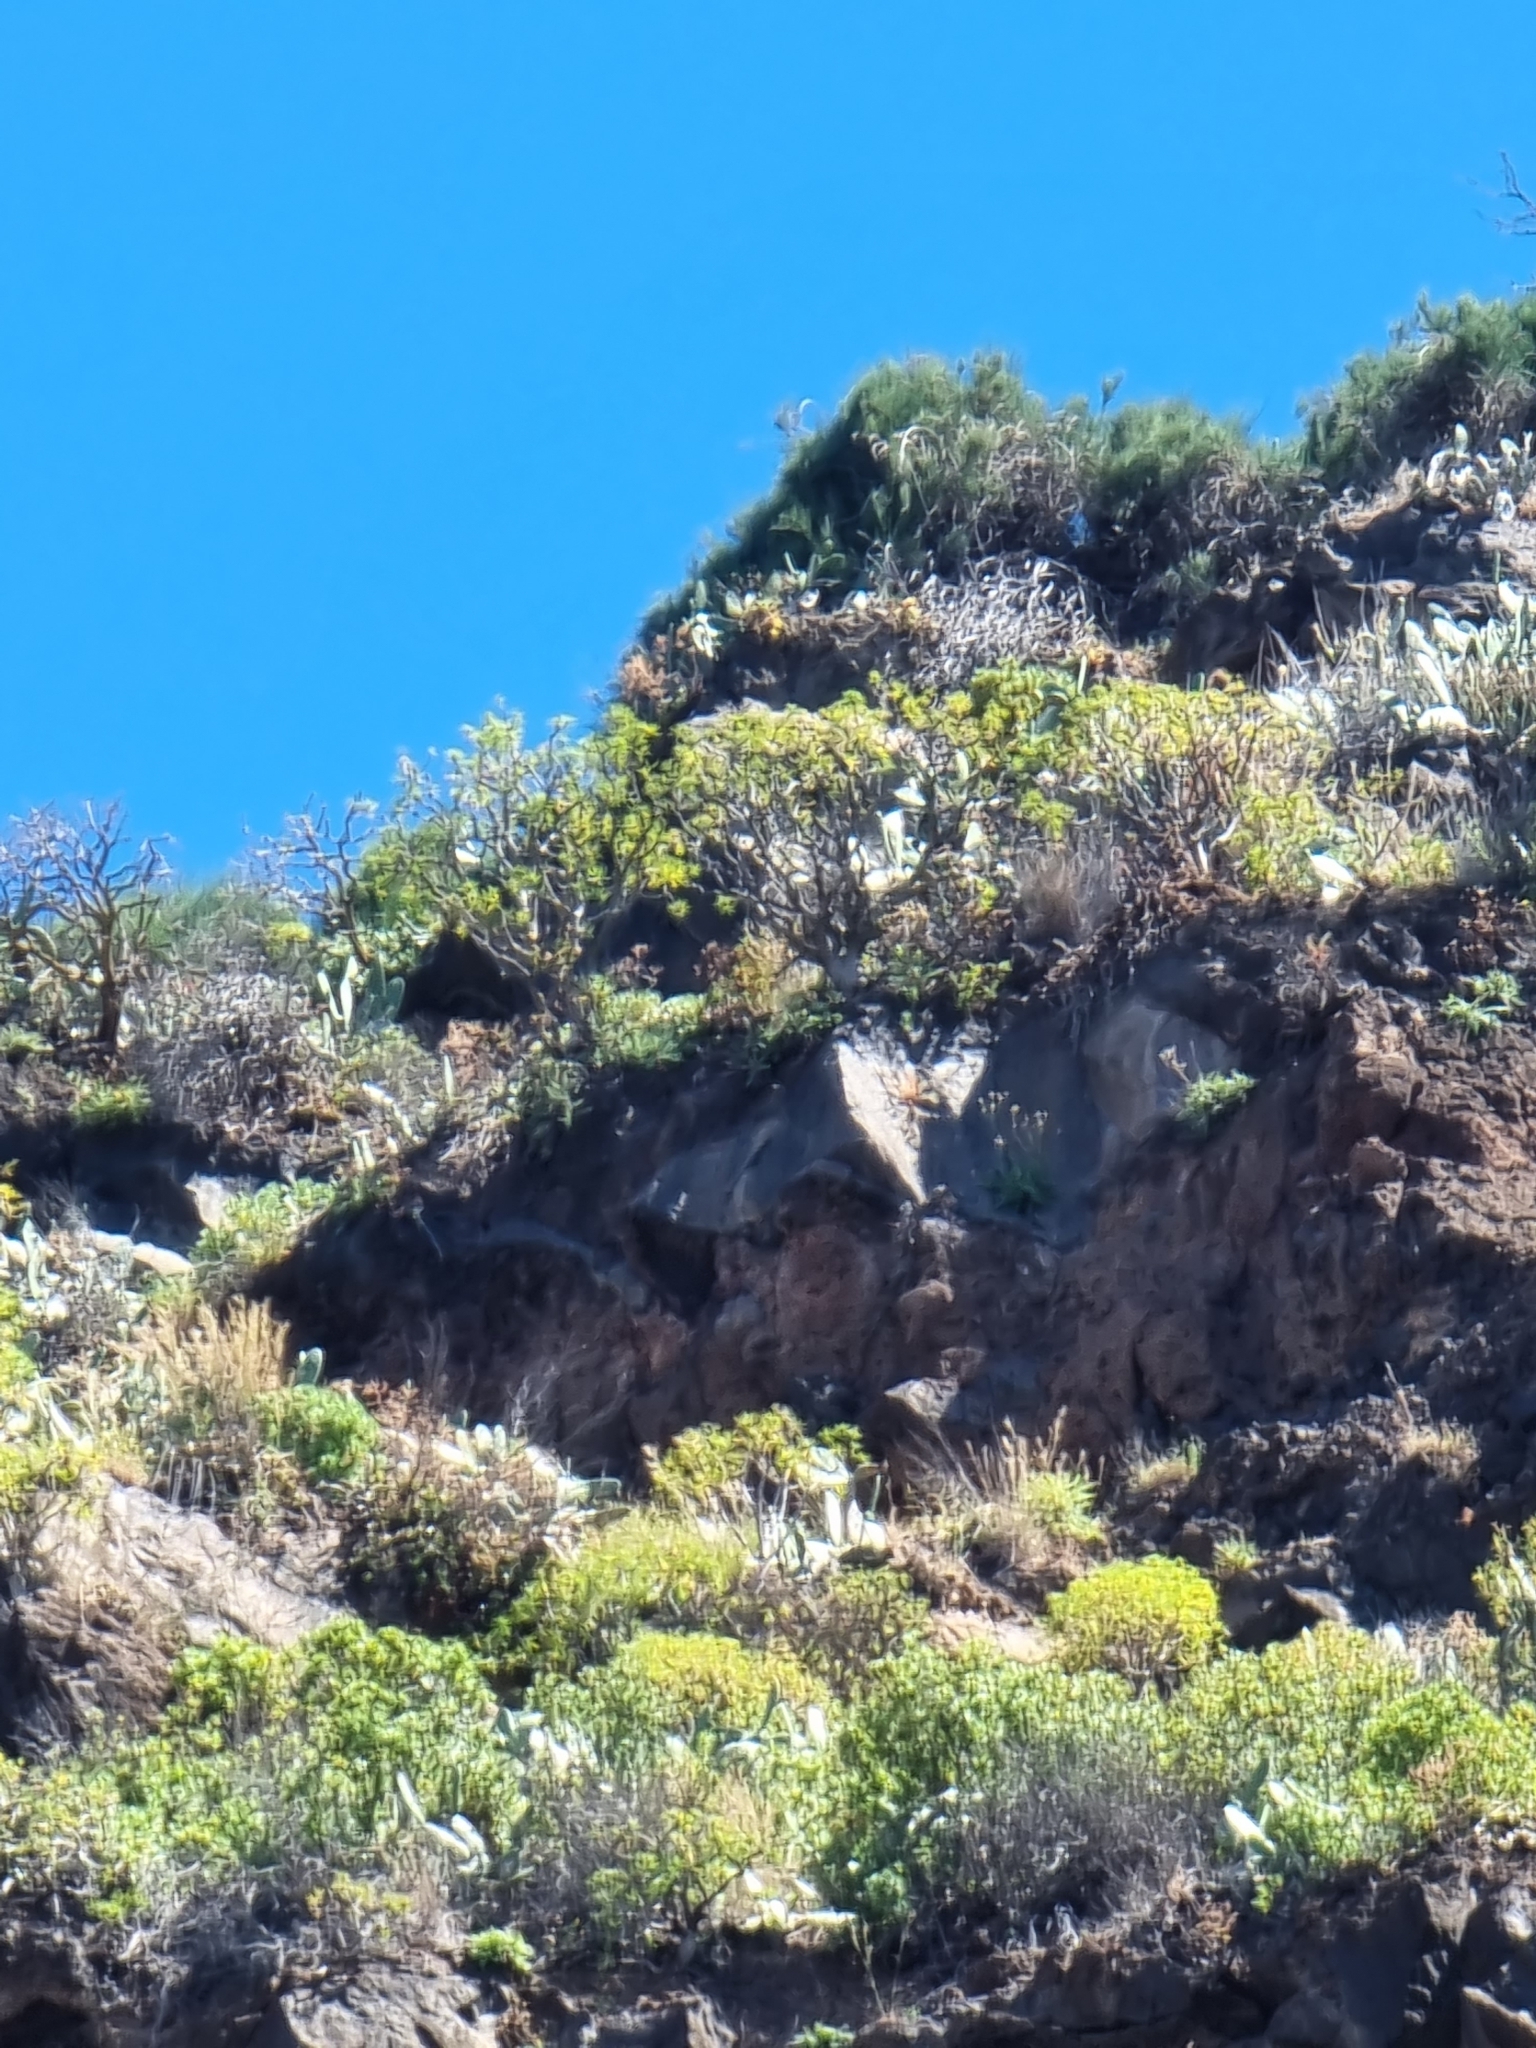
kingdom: Plantae
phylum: Tracheophyta
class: Magnoliopsida
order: Asterales
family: Asteraceae
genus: Sonchus
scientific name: Sonchus ustulatus
